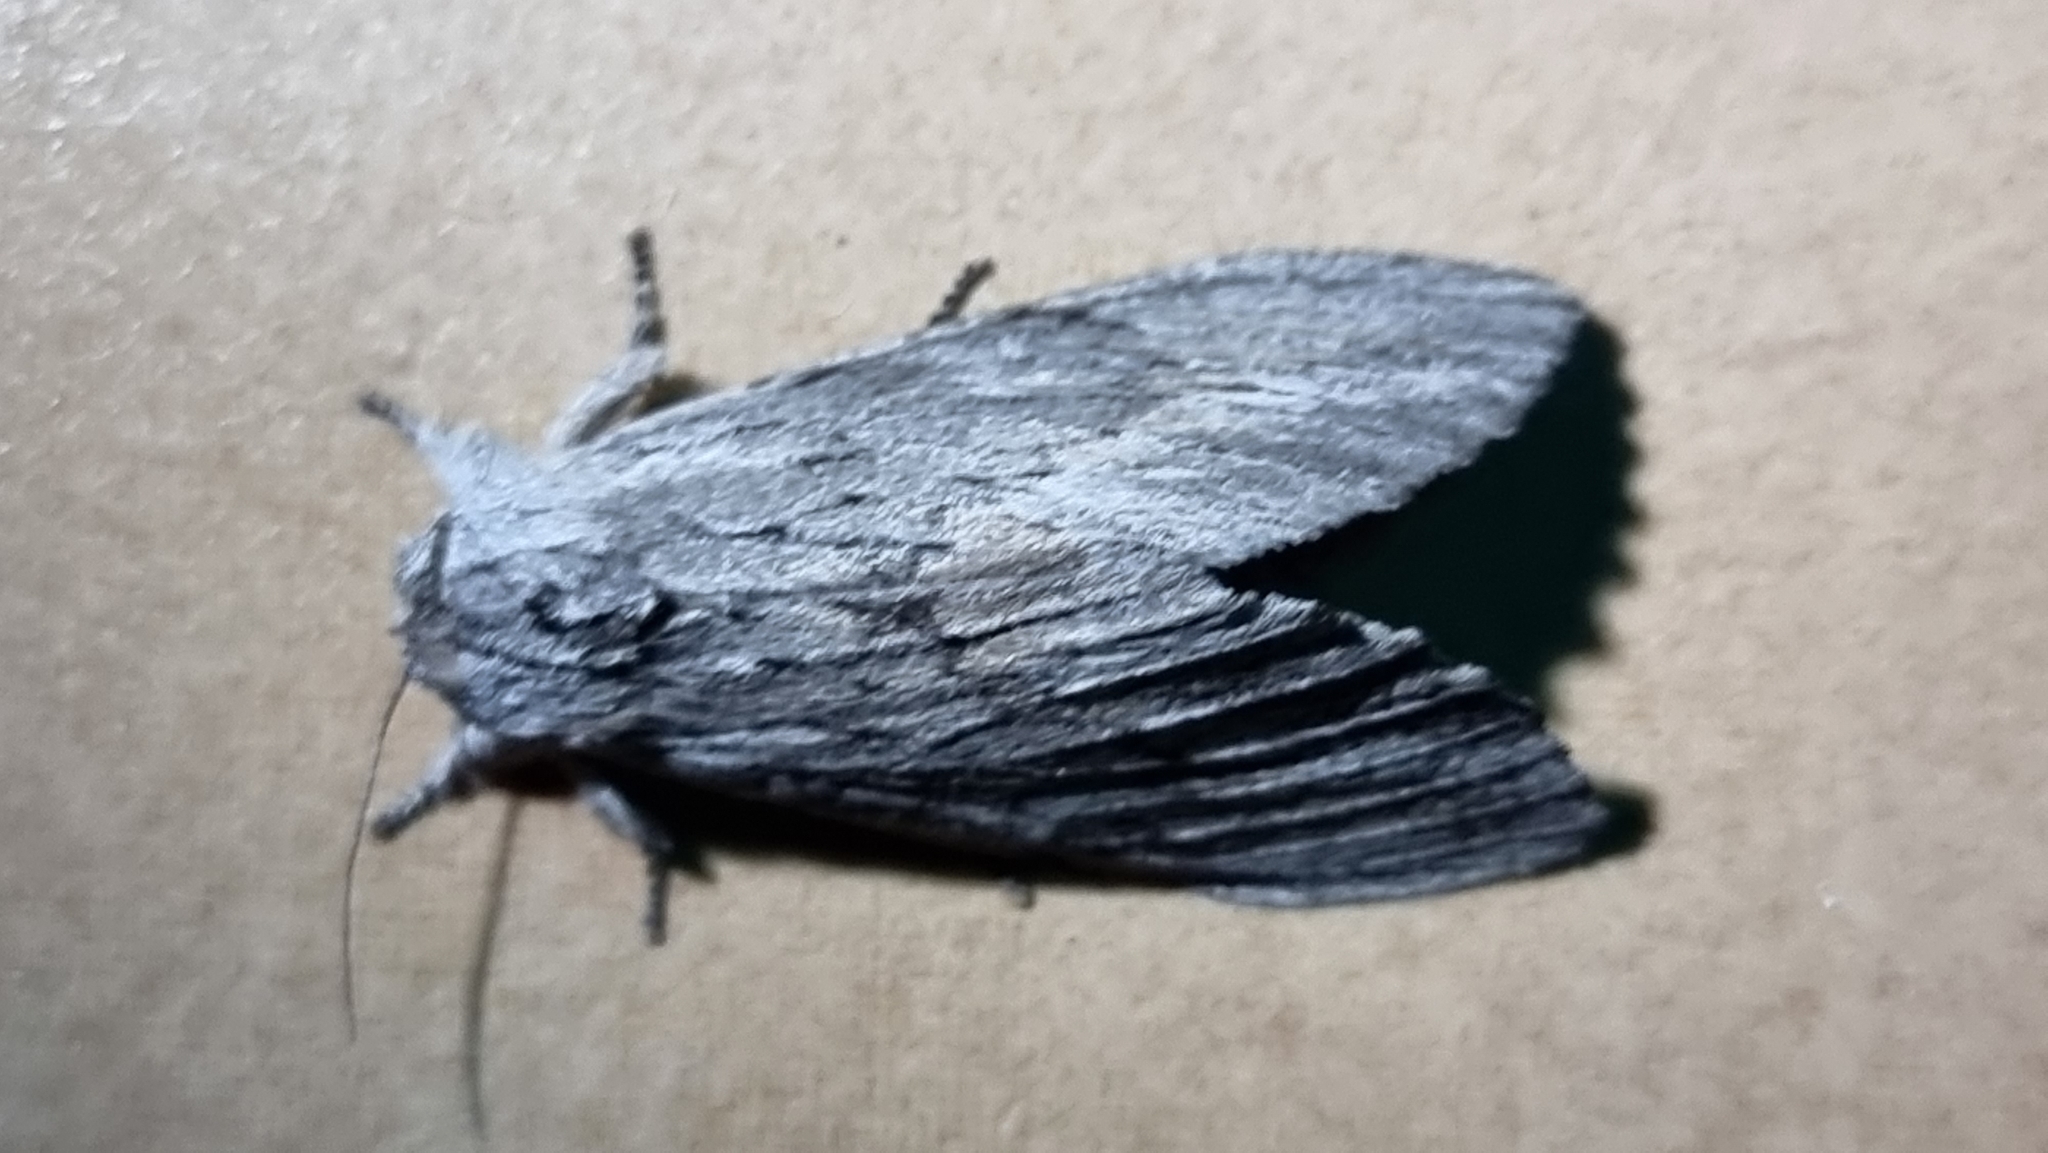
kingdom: Animalia
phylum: Arthropoda
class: Insecta
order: Lepidoptera
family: Notodontidae
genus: Destolmia
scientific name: Destolmia lineata
